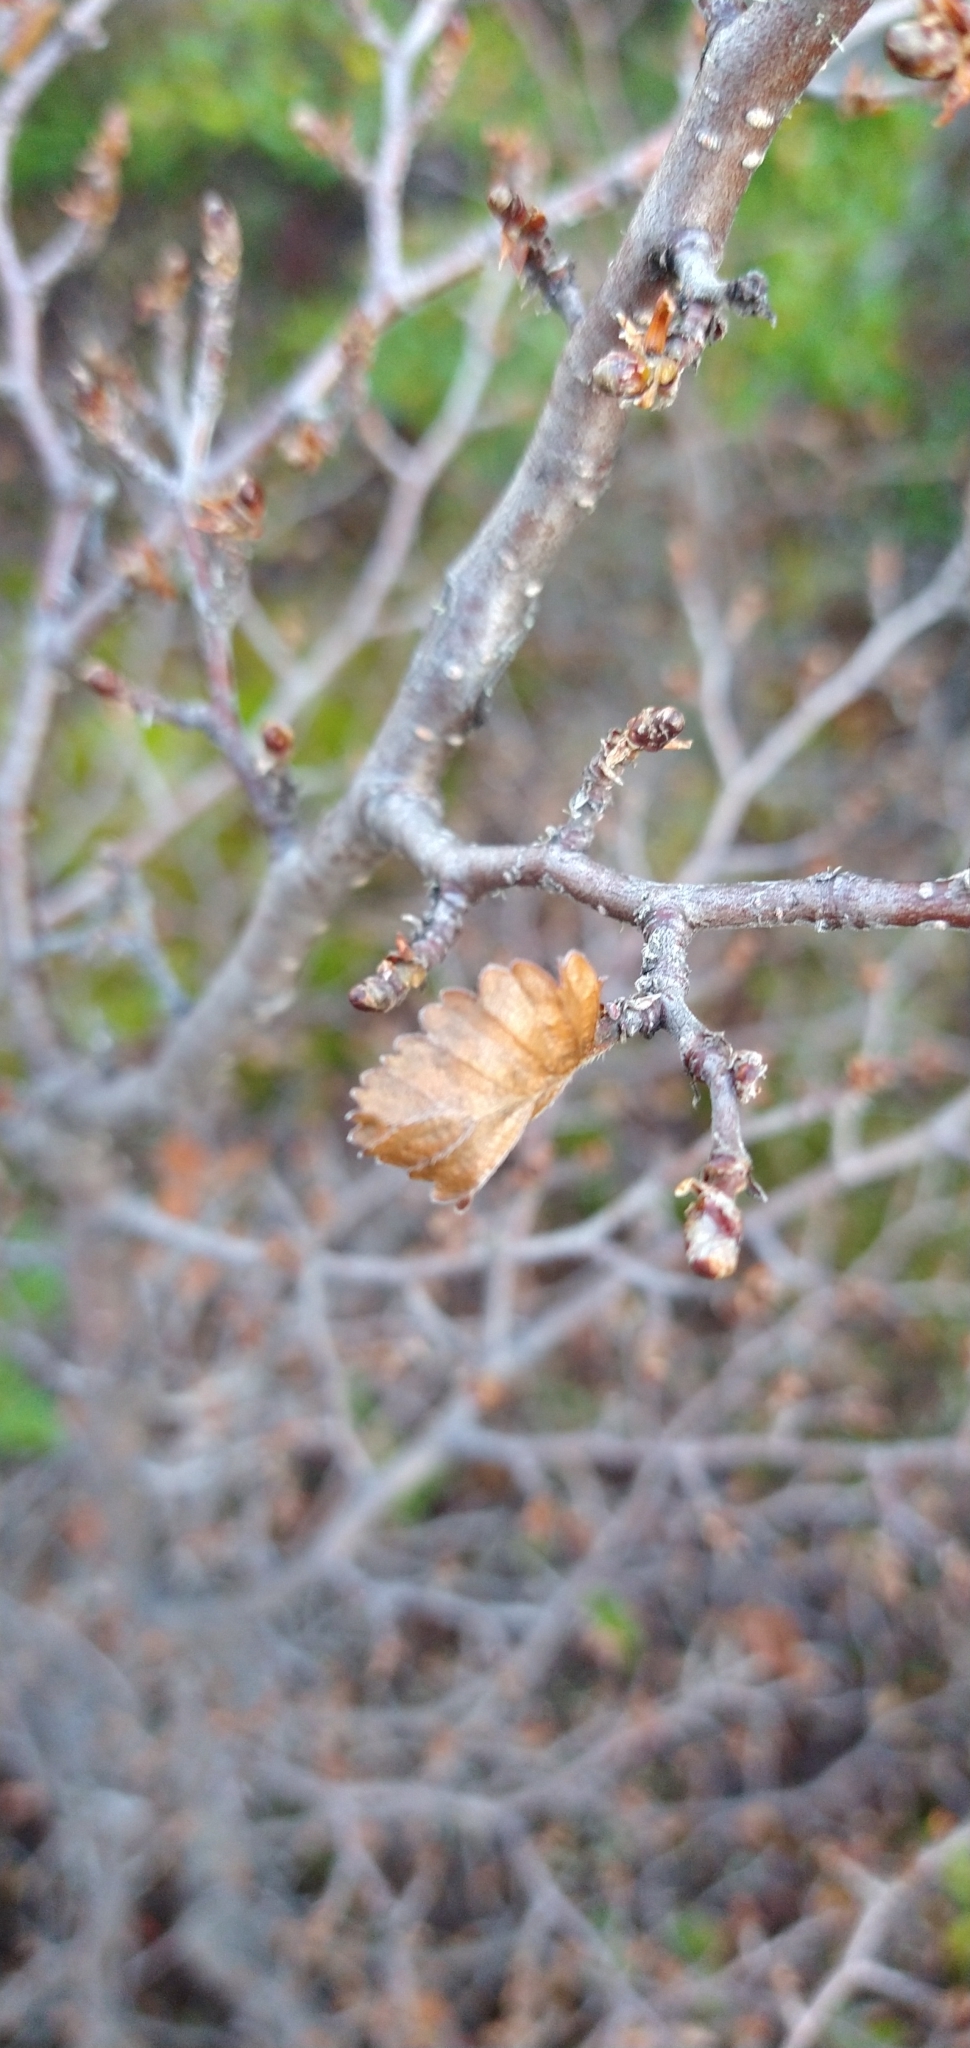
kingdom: Plantae
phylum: Tracheophyta
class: Magnoliopsida
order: Fagales
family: Nothofagaceae
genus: Nothofagus
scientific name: Nothofagus pumilio
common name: Lenga beech
